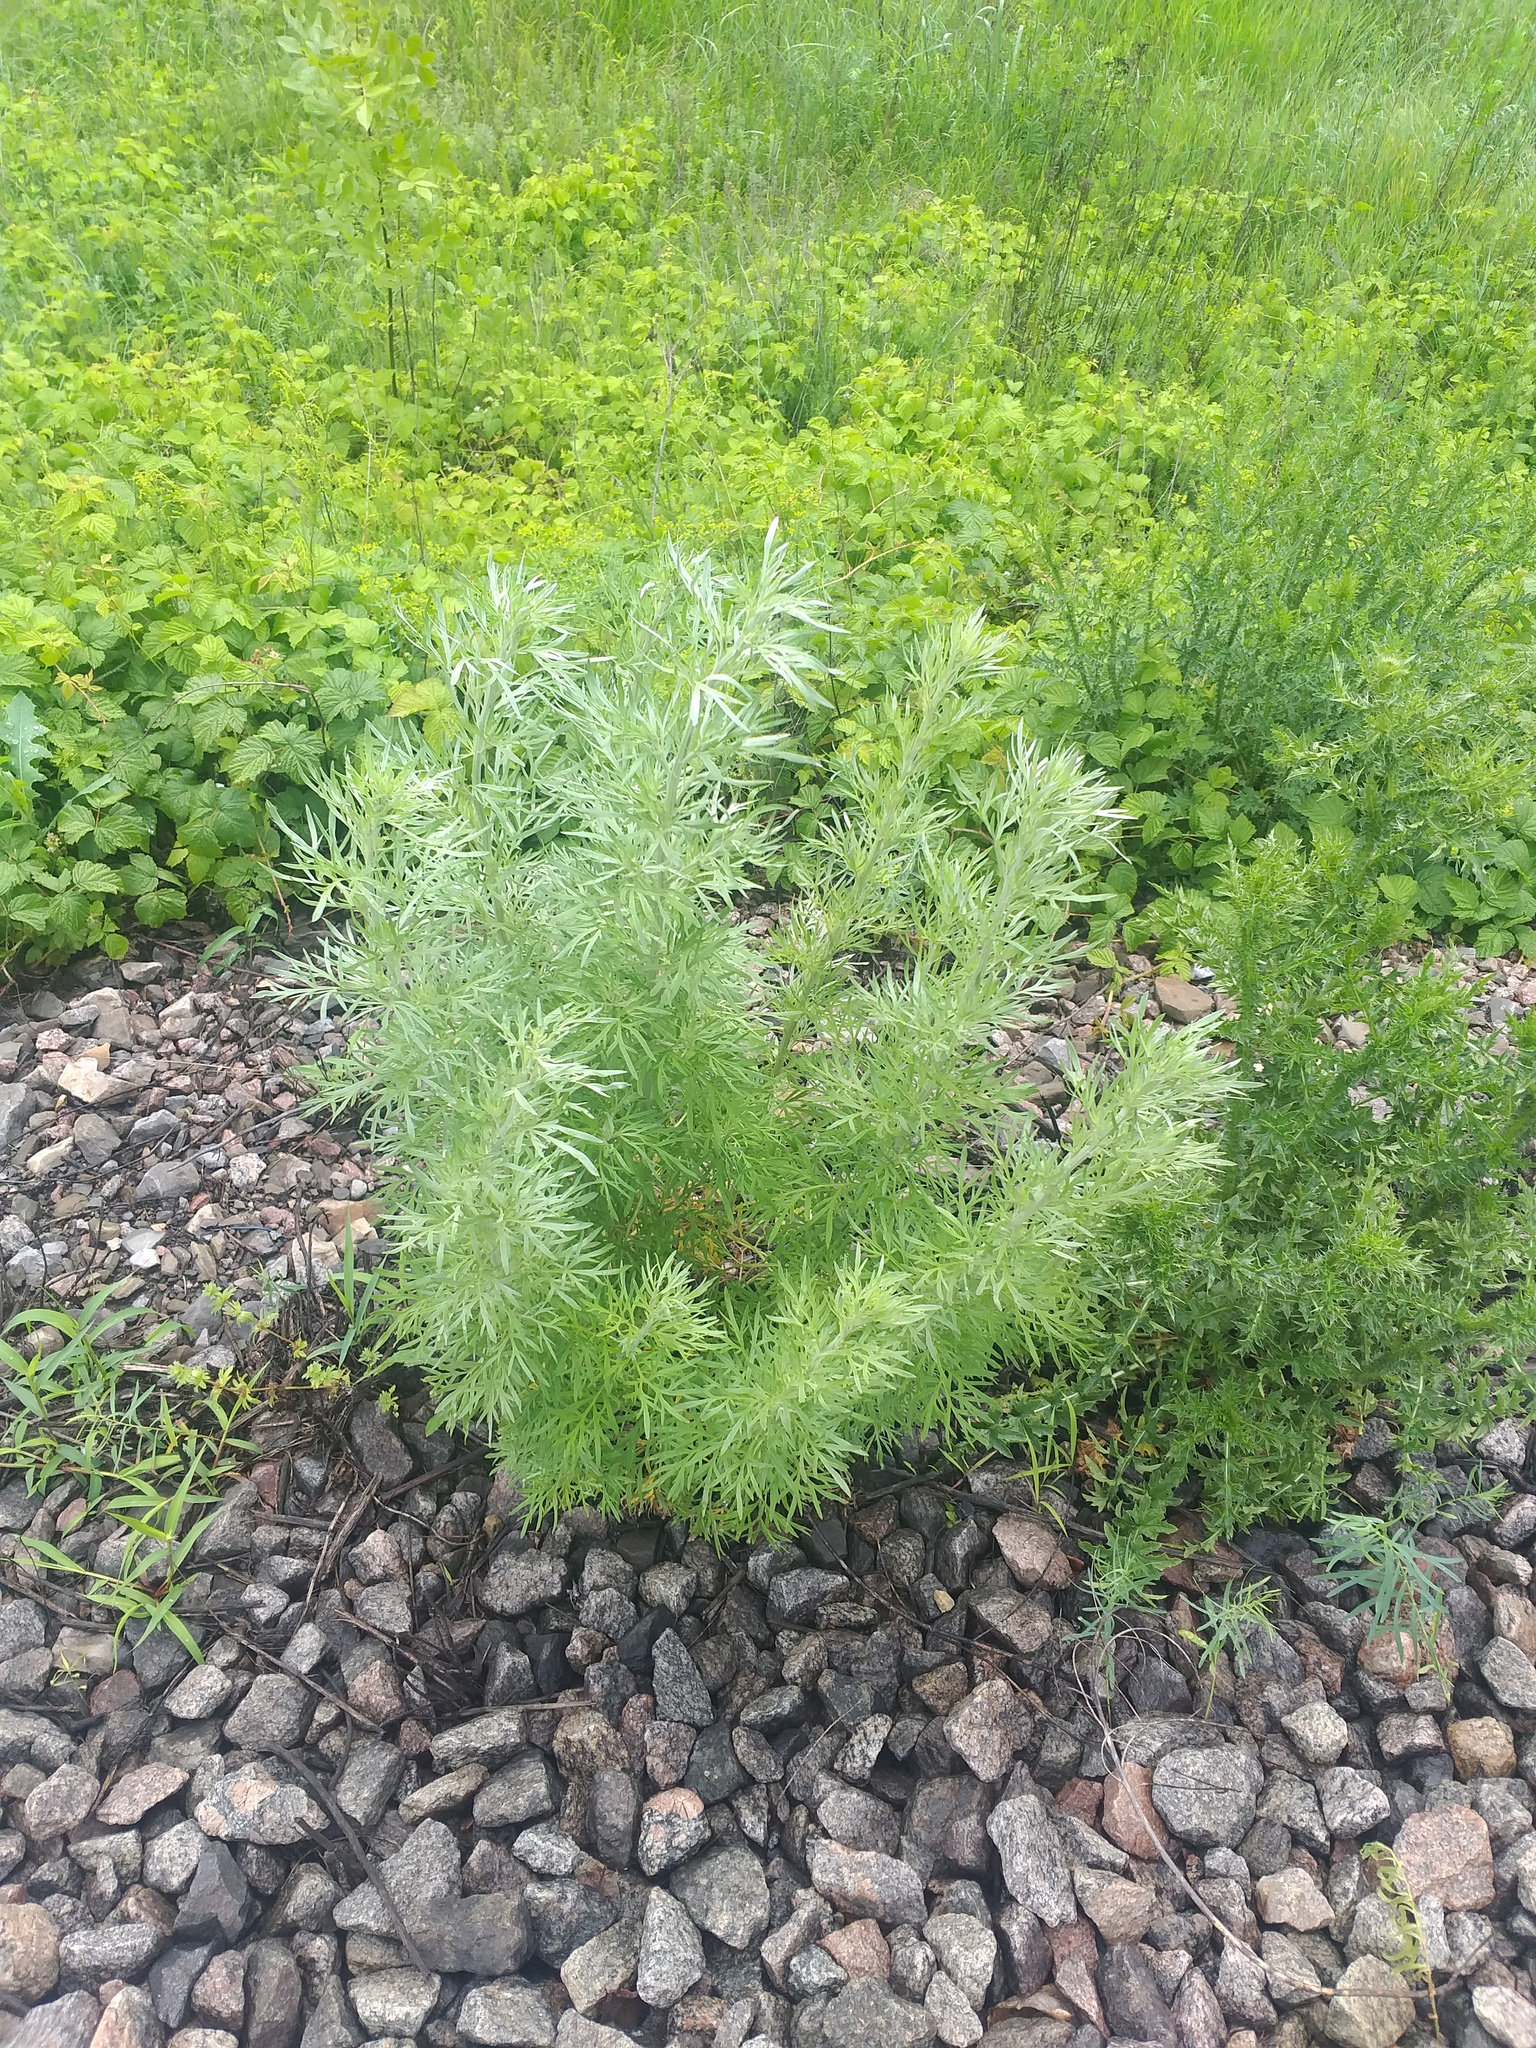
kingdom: Plantae
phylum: Tracheophyta
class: Magnoliopsida
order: Asterales
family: Asteraceae
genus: Artemisia
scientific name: Artemisia absinthium
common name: Wormwood
